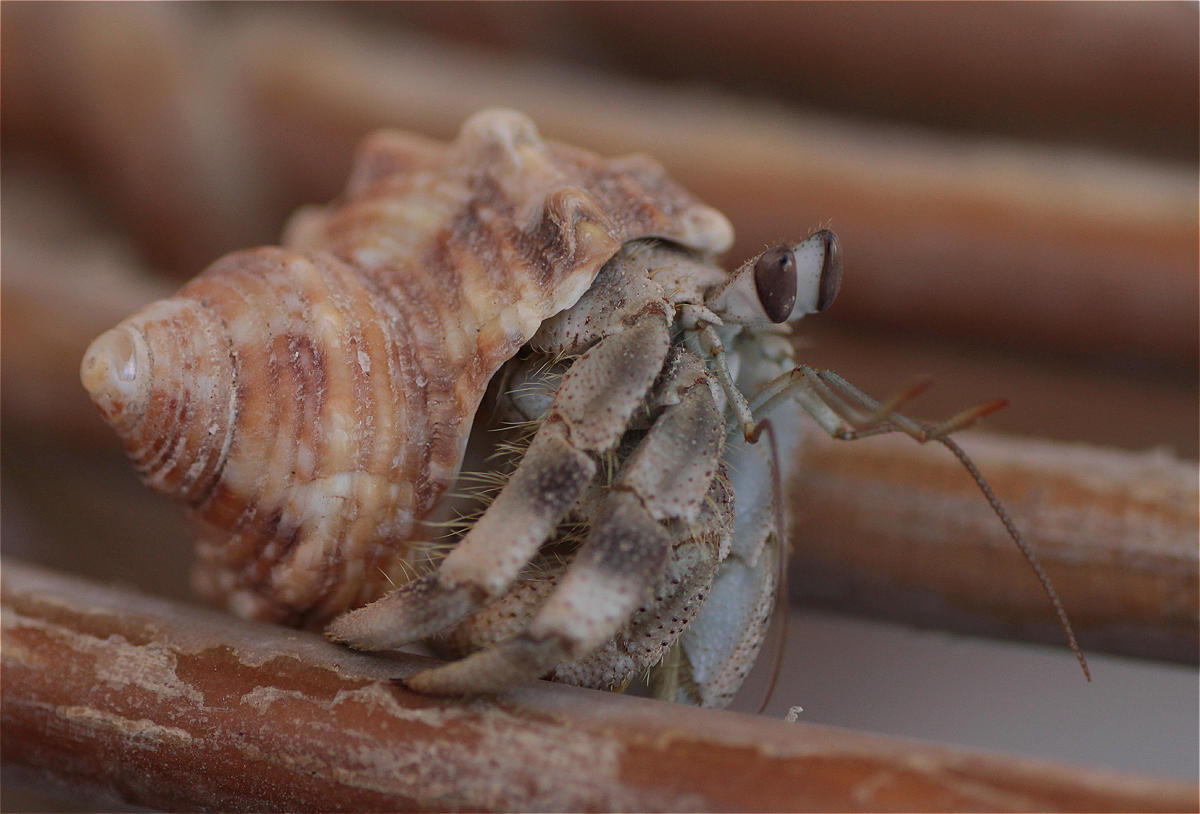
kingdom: Animalia
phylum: Arthropoda
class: Malacostraca
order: Decapoda
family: Coenobitidae
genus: Coenobita
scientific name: Coenobita scaevola
